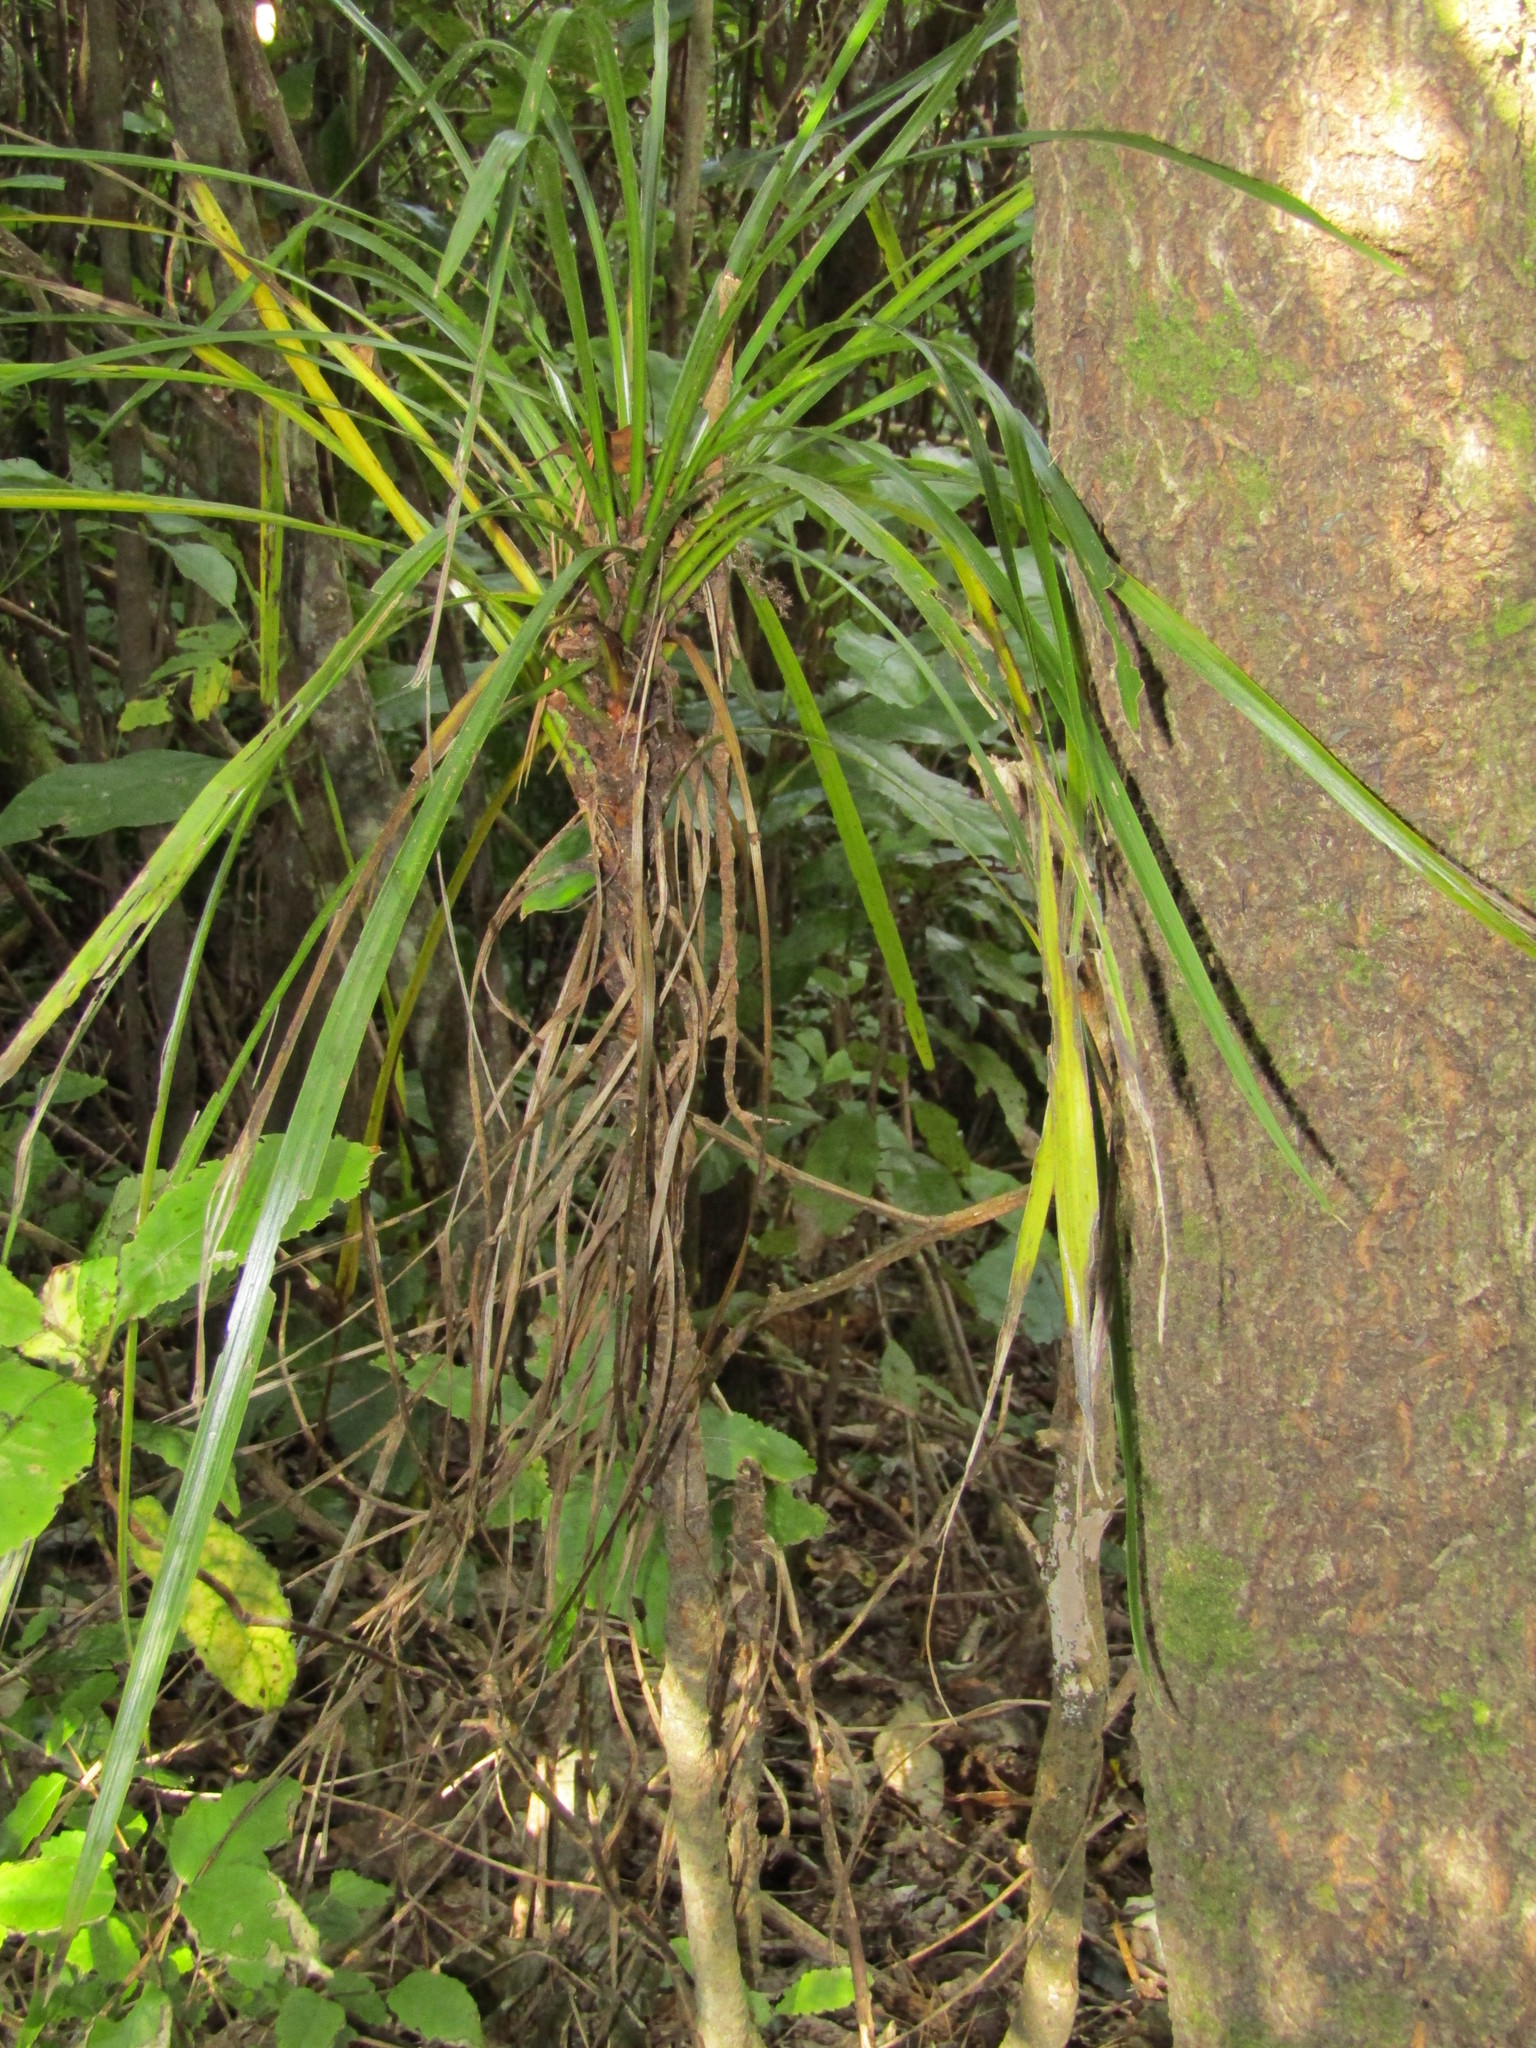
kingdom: Plantae
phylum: Tracheophyta
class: Liliopsida
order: Asparagales
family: Asparagaceae
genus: Cordyline
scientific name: Cordyline australis
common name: Cabbage-palm
